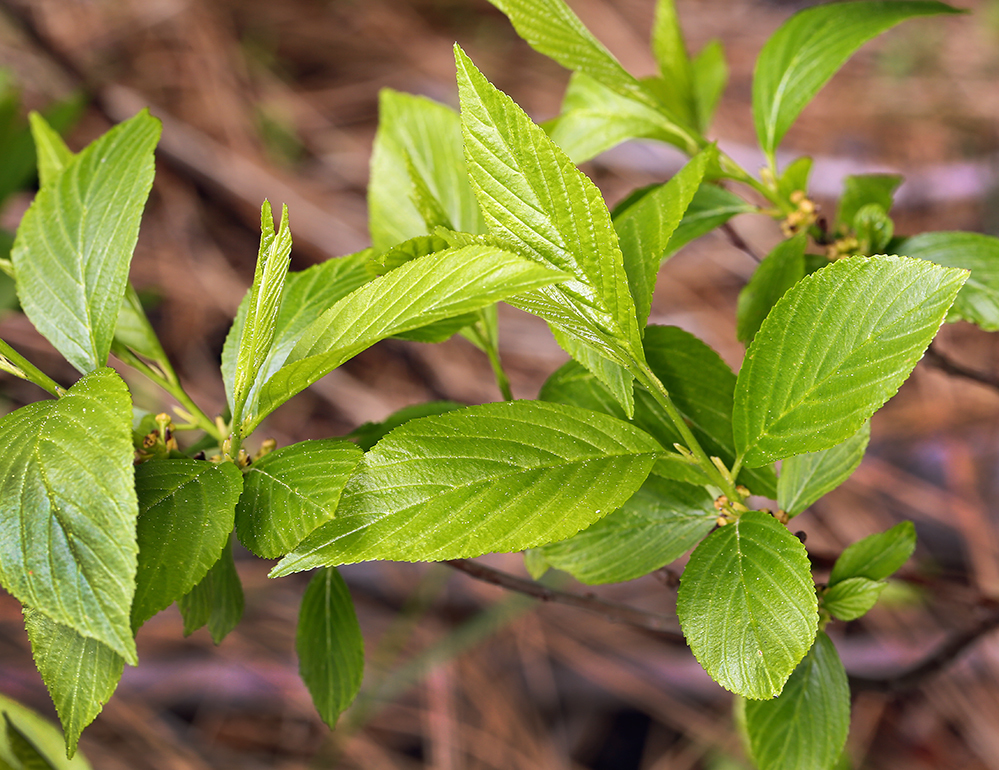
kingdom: Plantae
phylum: Tracheophyta
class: Magnoliopsida
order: Rosales
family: Rhamnaceae
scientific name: Rhamnaceae
